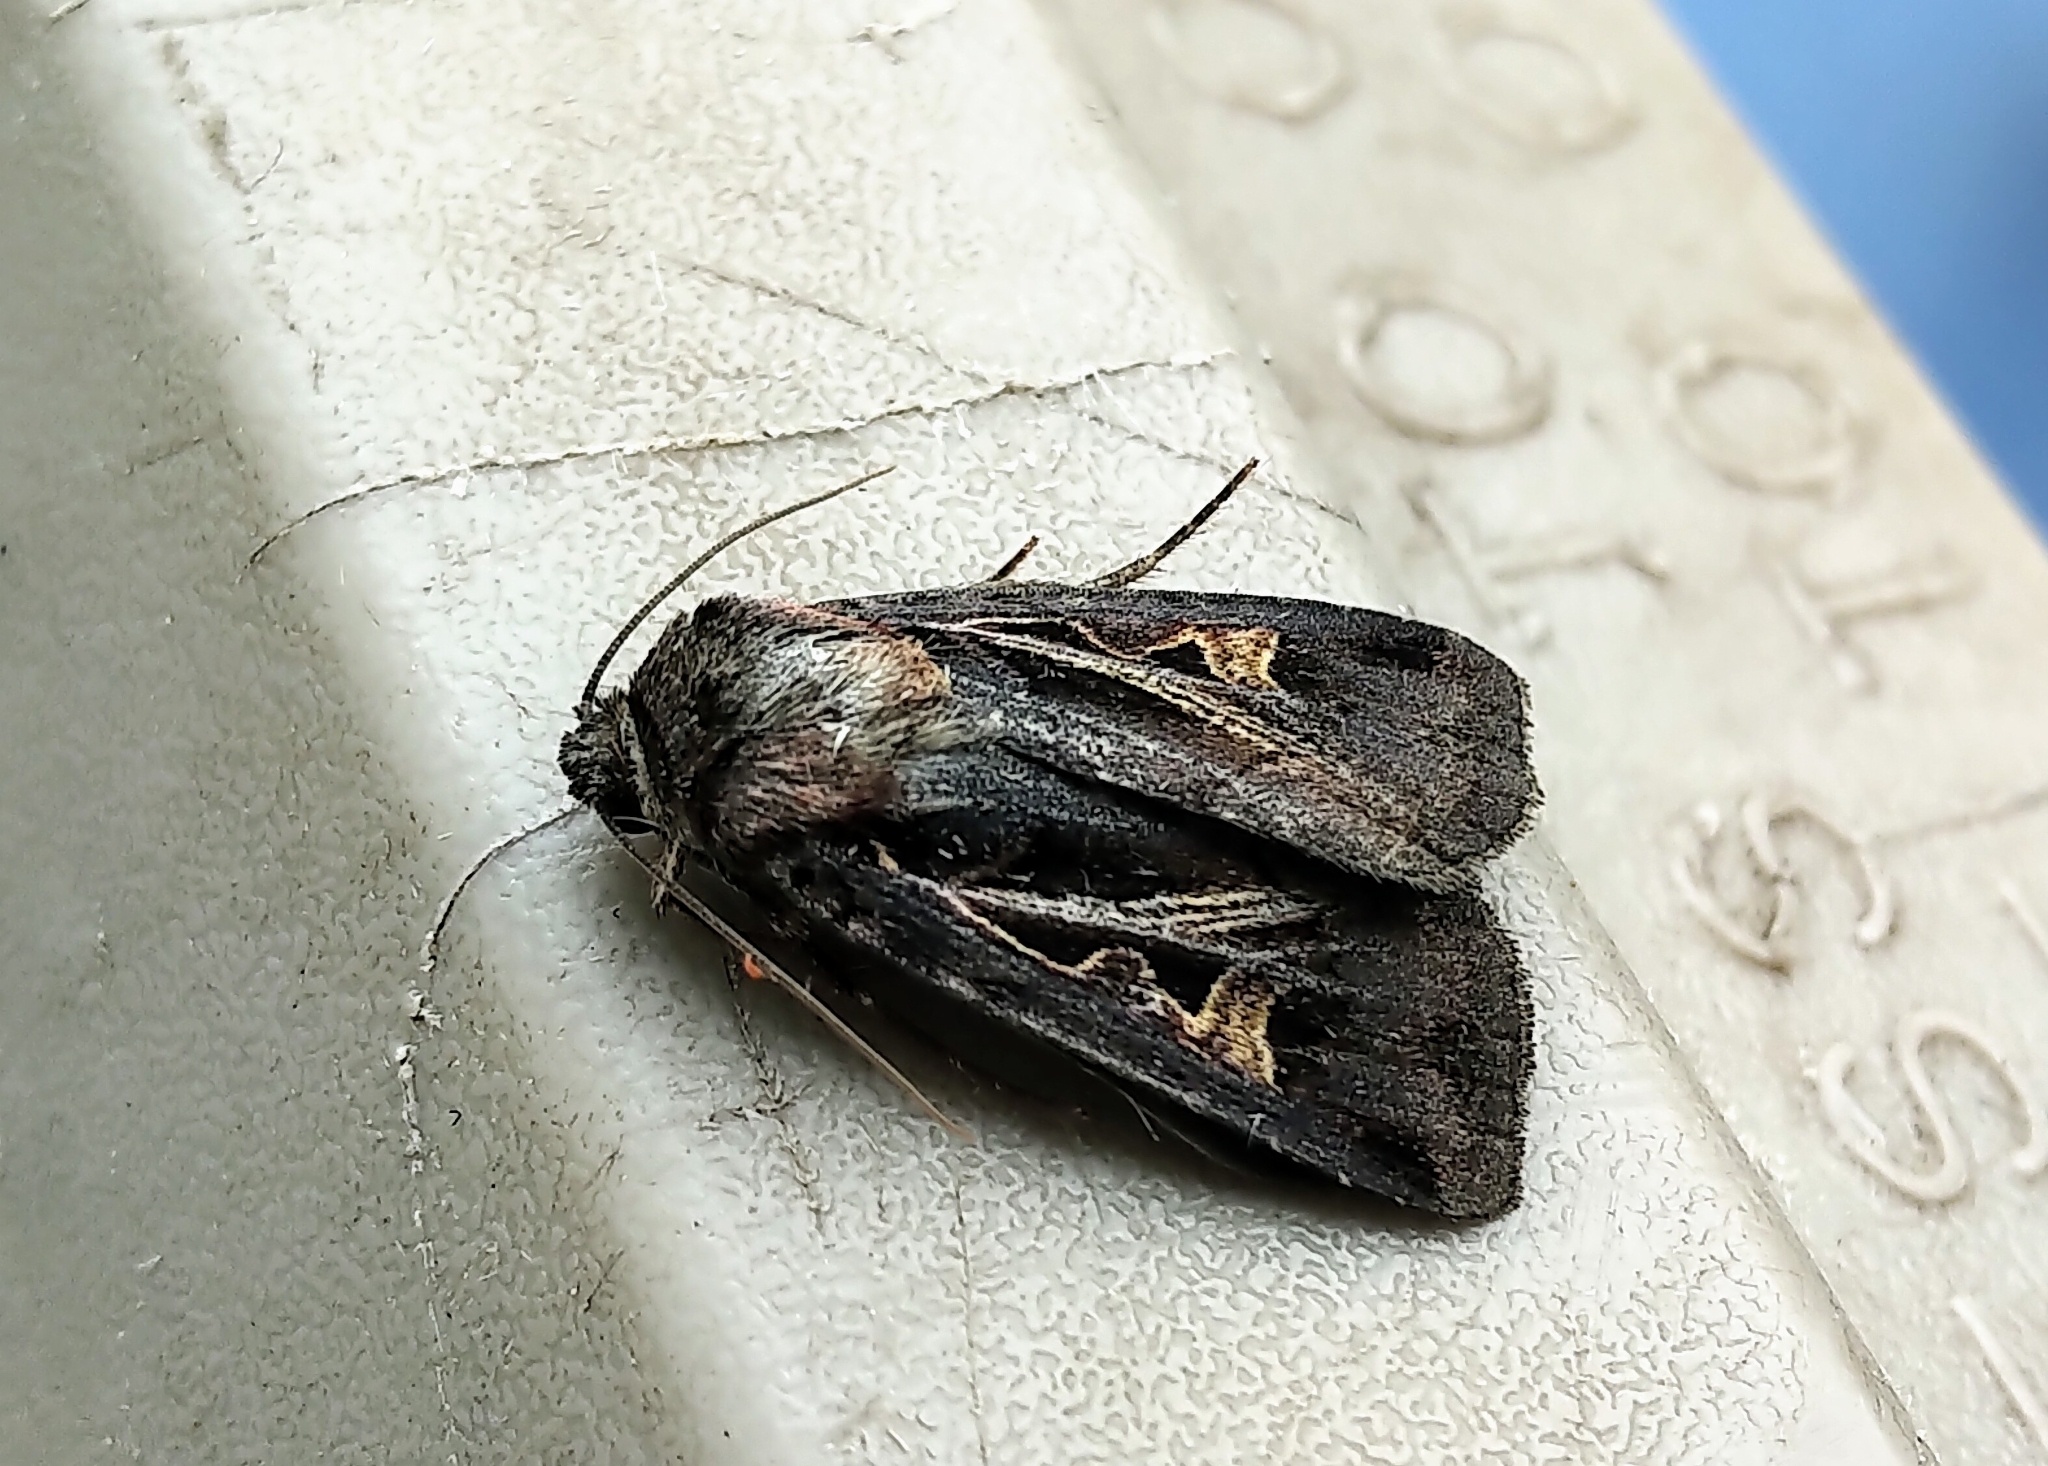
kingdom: Animalia
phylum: Arthropoda
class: Insecta
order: Lepidoptera
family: Noctuidae
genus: Feltia
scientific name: Feltia herilis
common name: Master's dart
